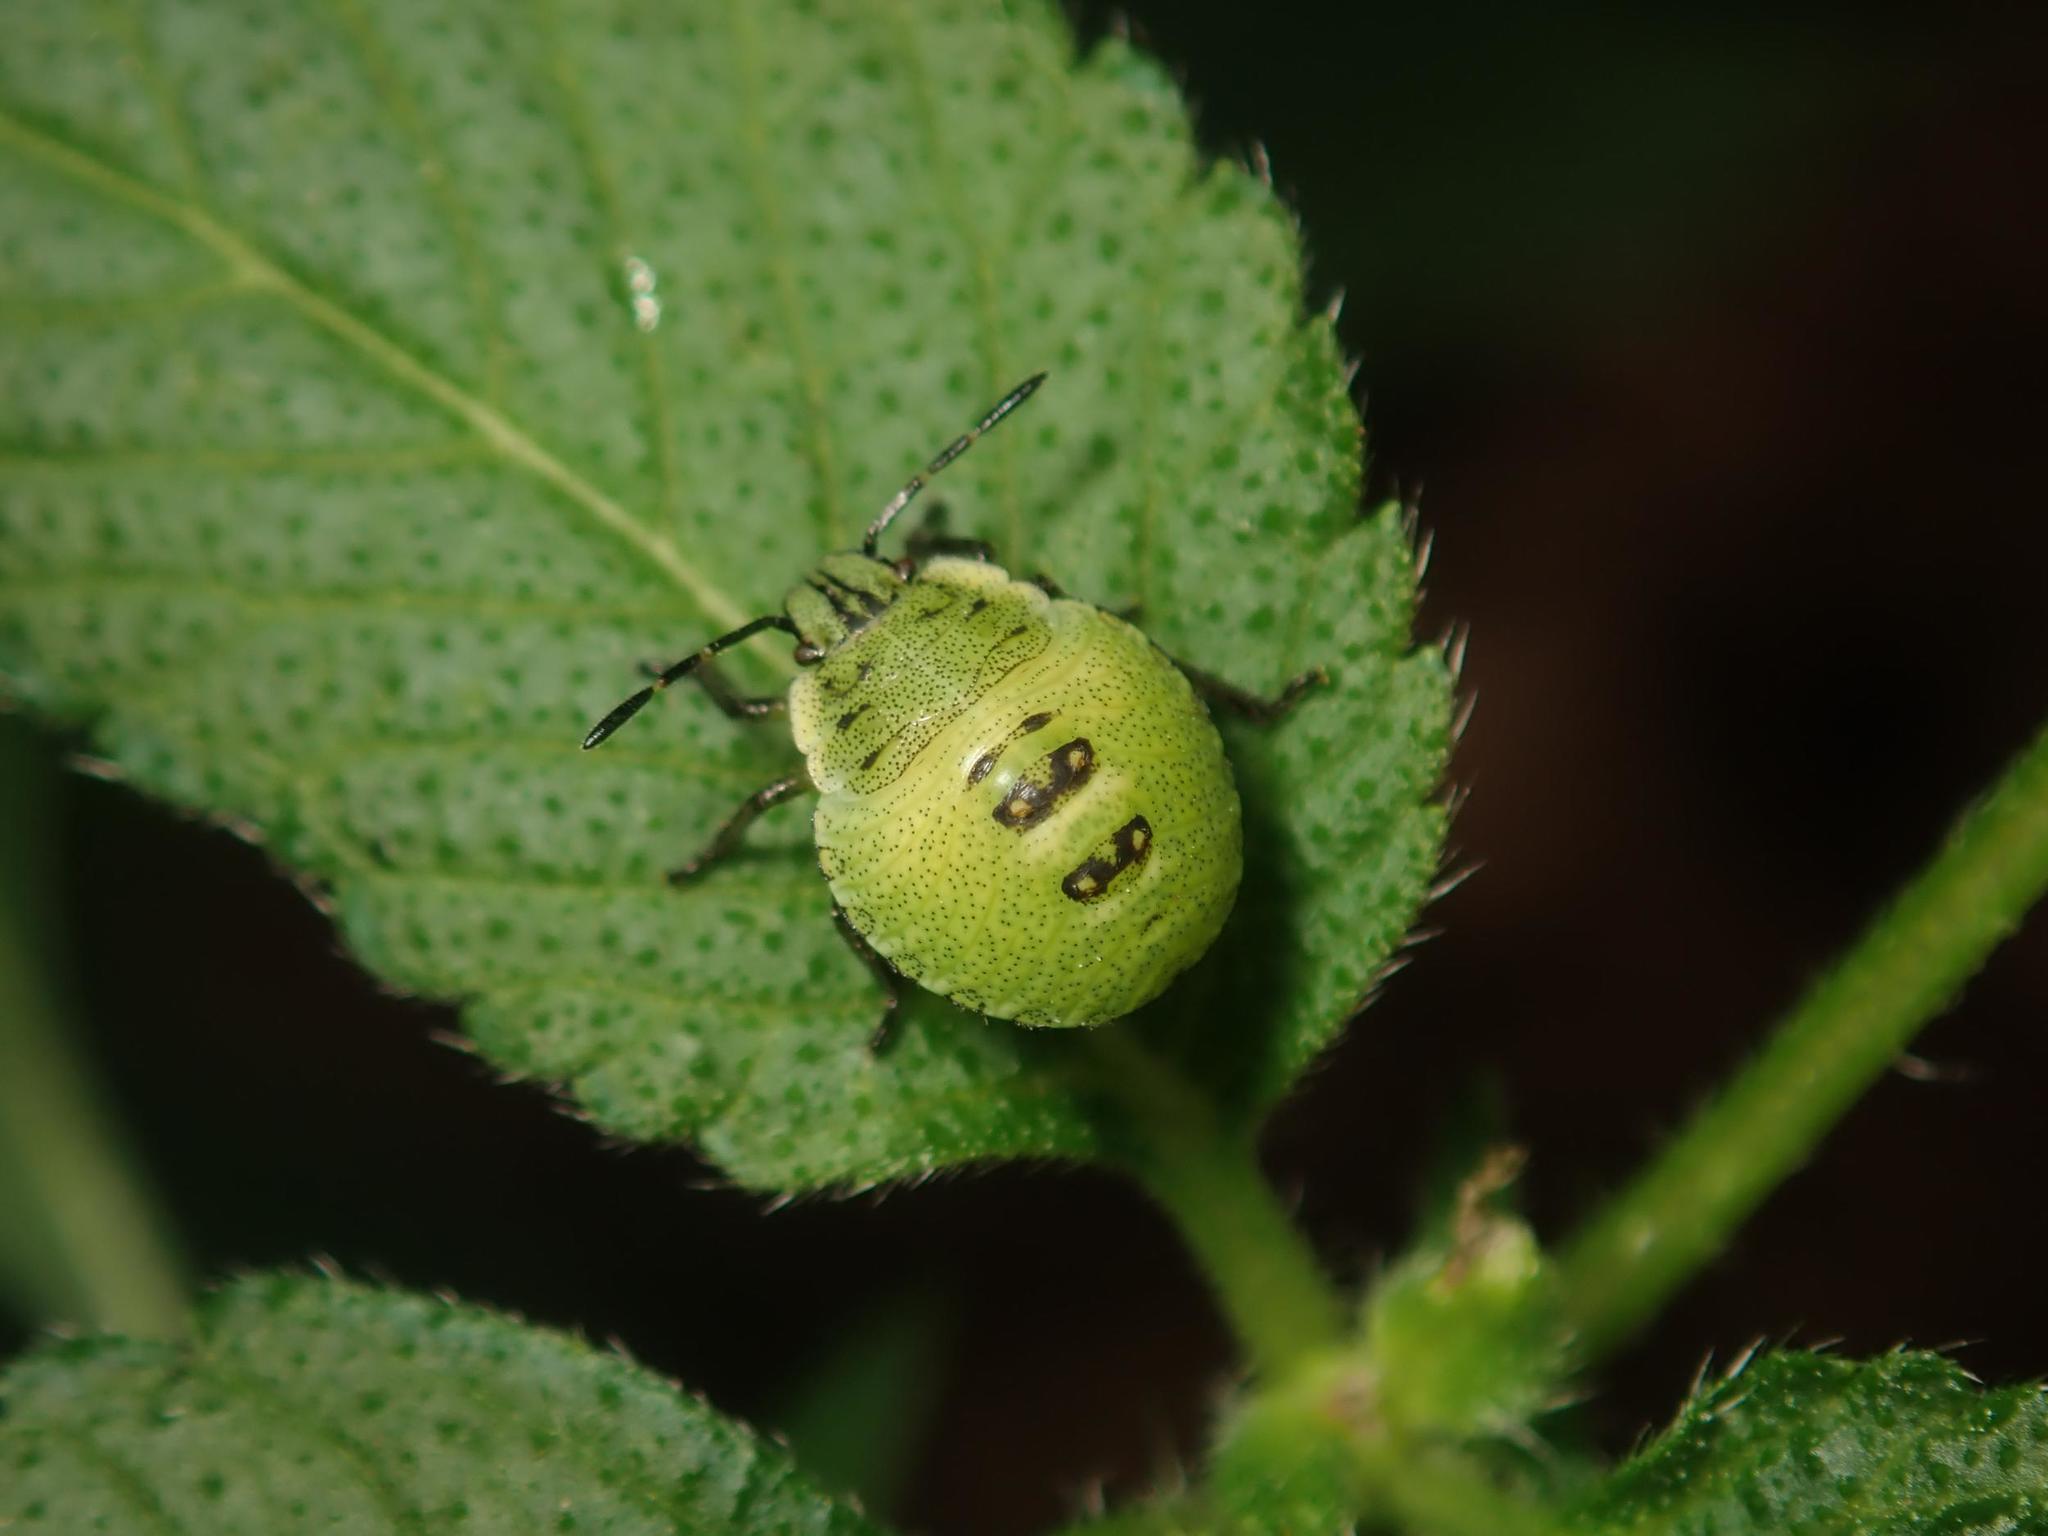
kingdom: Animalia
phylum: Arthropoda
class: Insecta
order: Hemiptera
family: Pentatomidae
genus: Palomena
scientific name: Palomena prasina
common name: Green shieldbug
